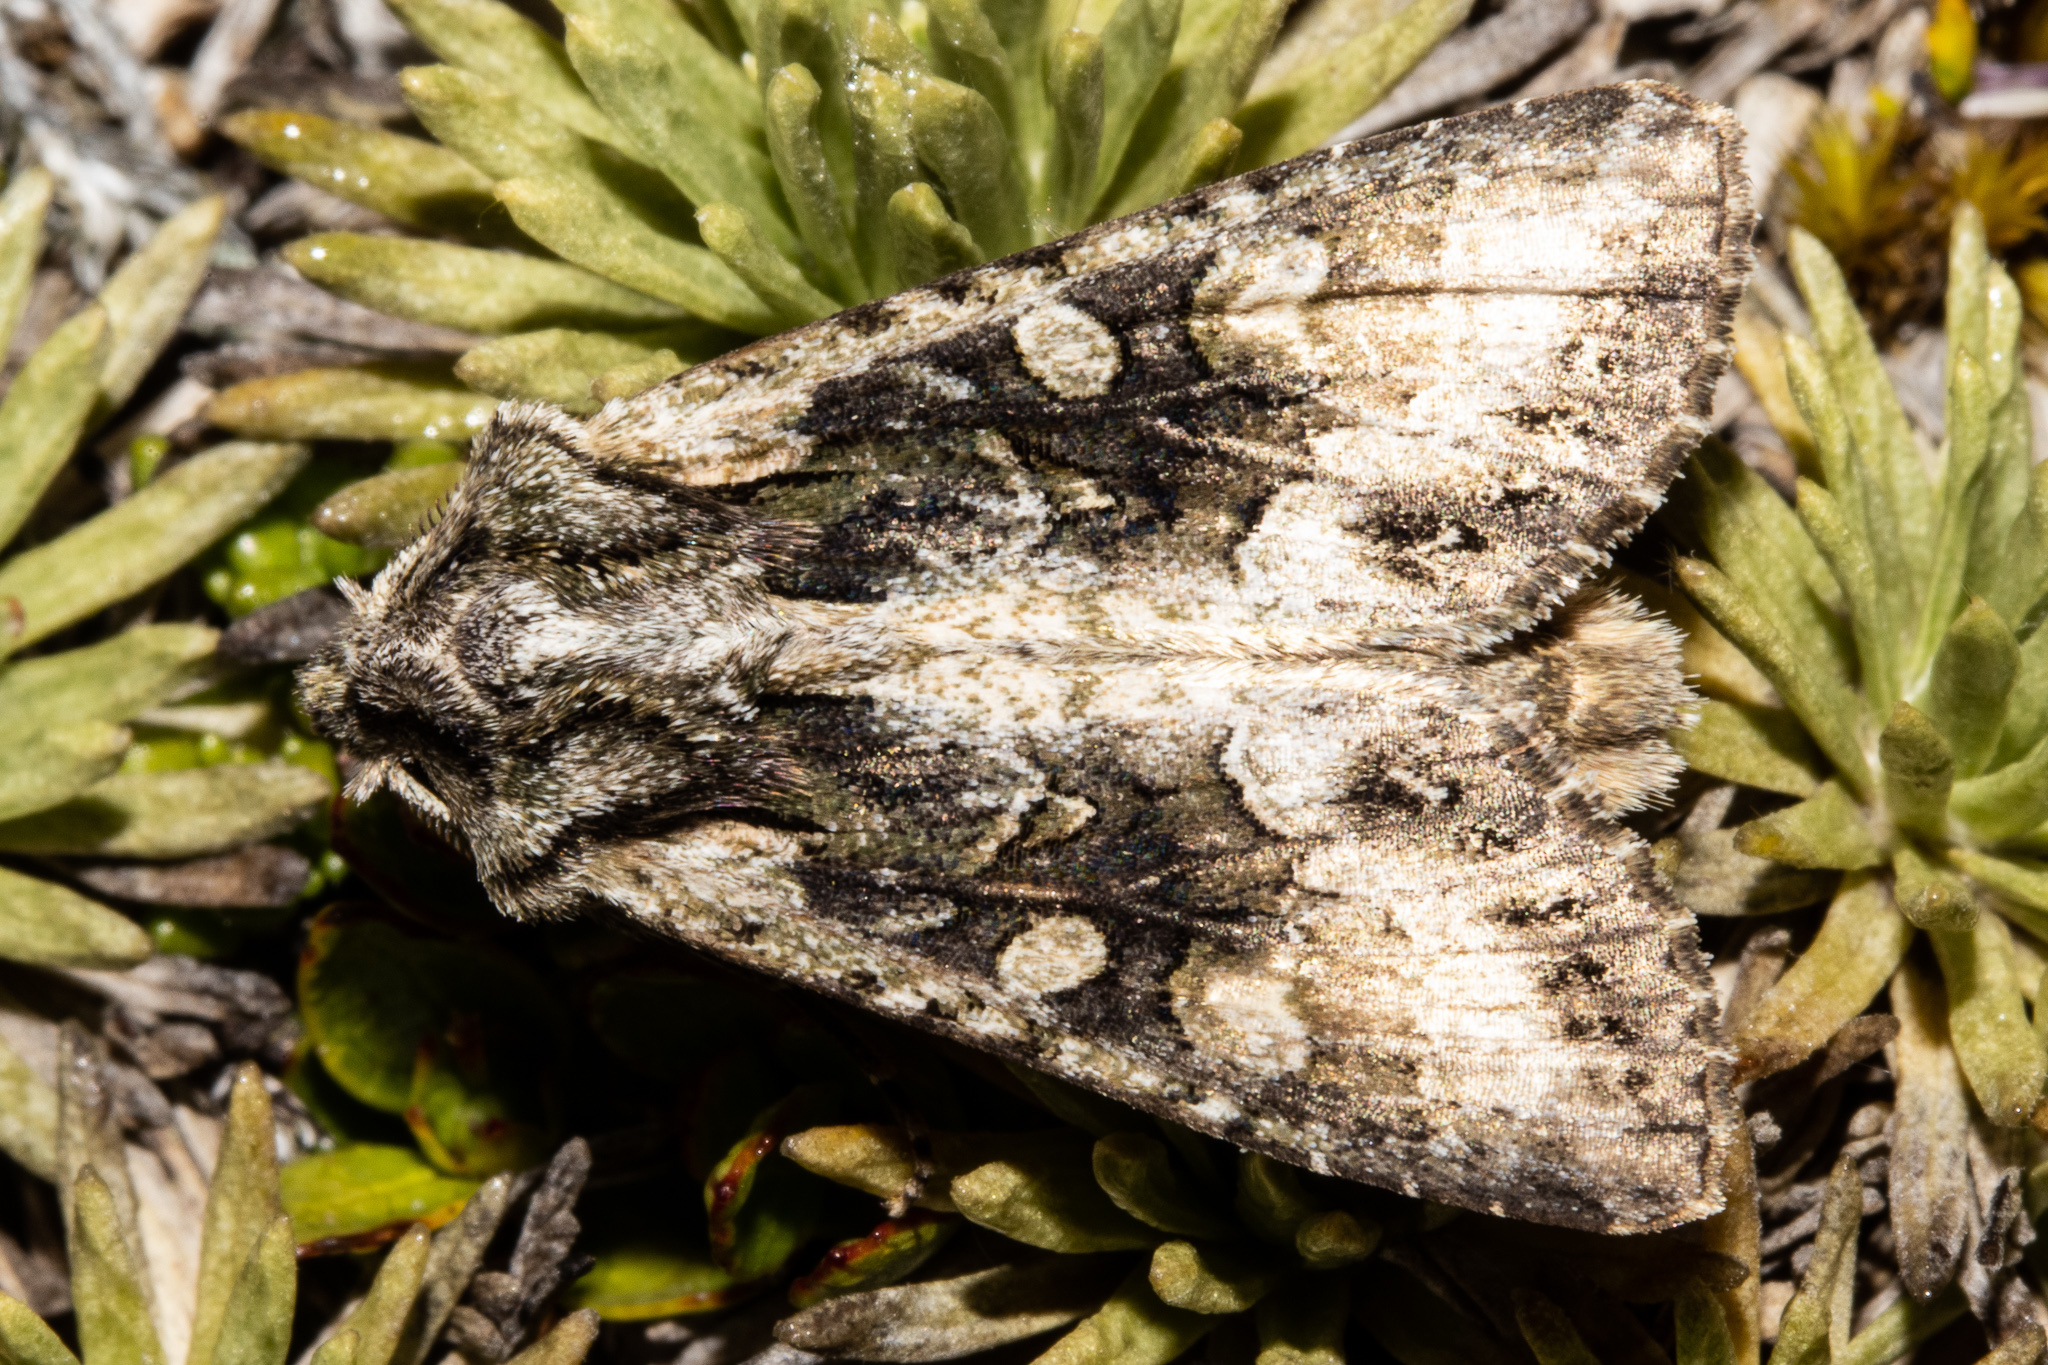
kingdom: Animalia
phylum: Arthropoda
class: Insecta
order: Lepidoptera
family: Noctuidae
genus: Ichneutica
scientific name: Ichneutica mutans
